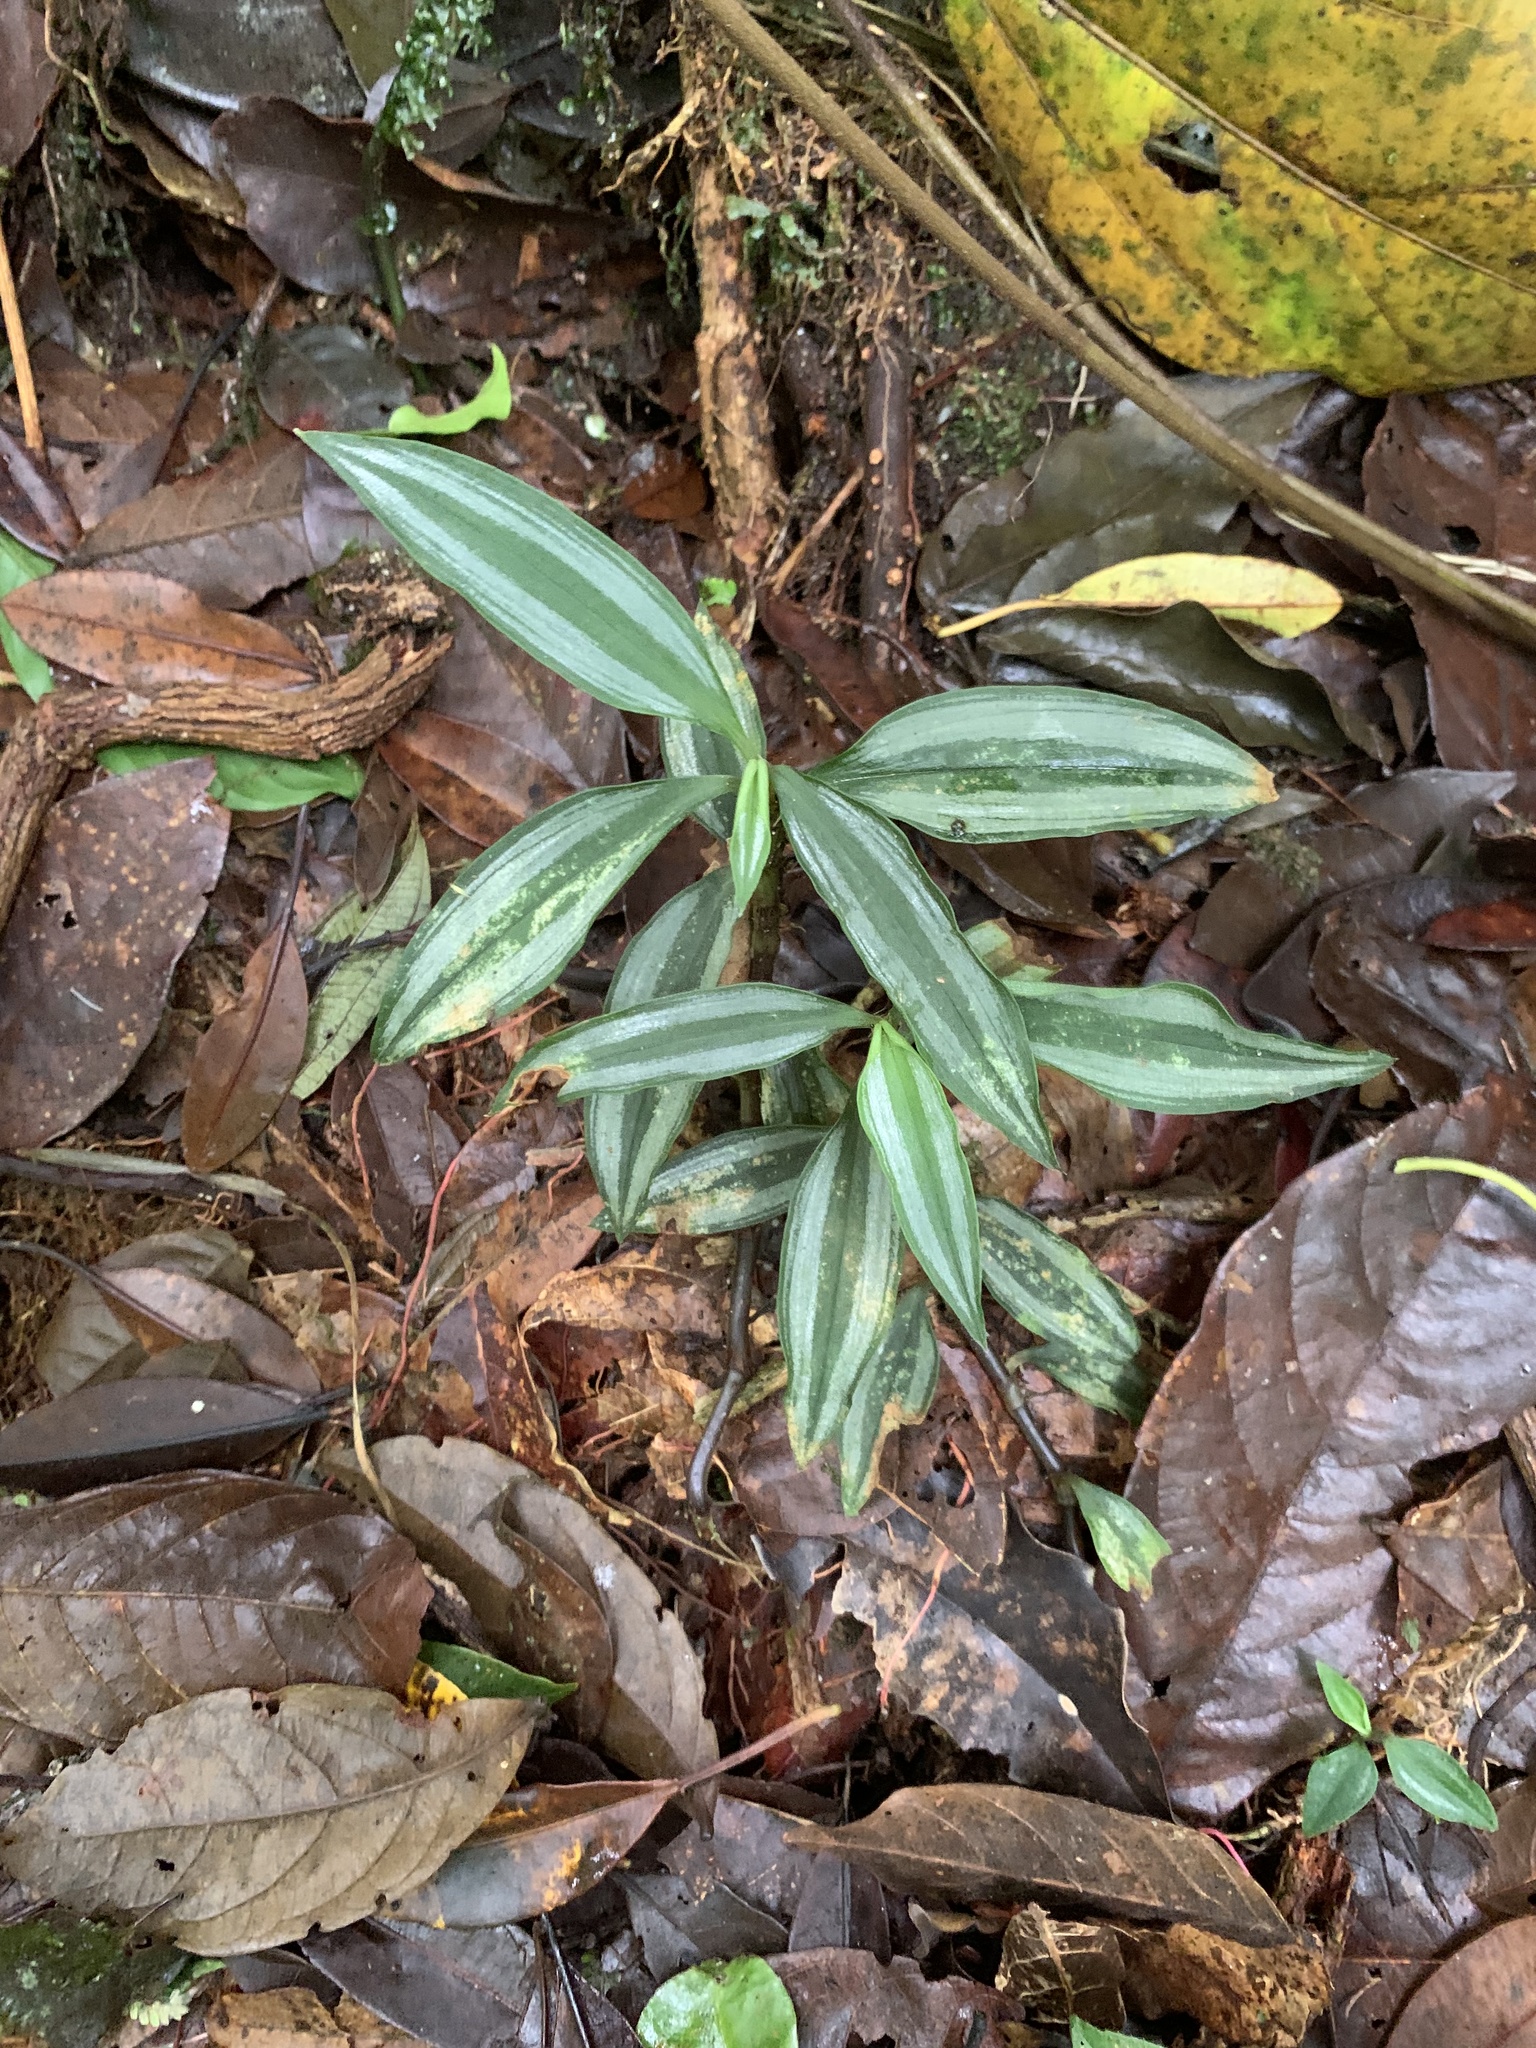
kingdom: Plantae
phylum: Tracheophyta
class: Liliopsida
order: Commelinales
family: Commelinaceae
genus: Tradescantia
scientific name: Tradescantia zebrina
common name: Inchplant
